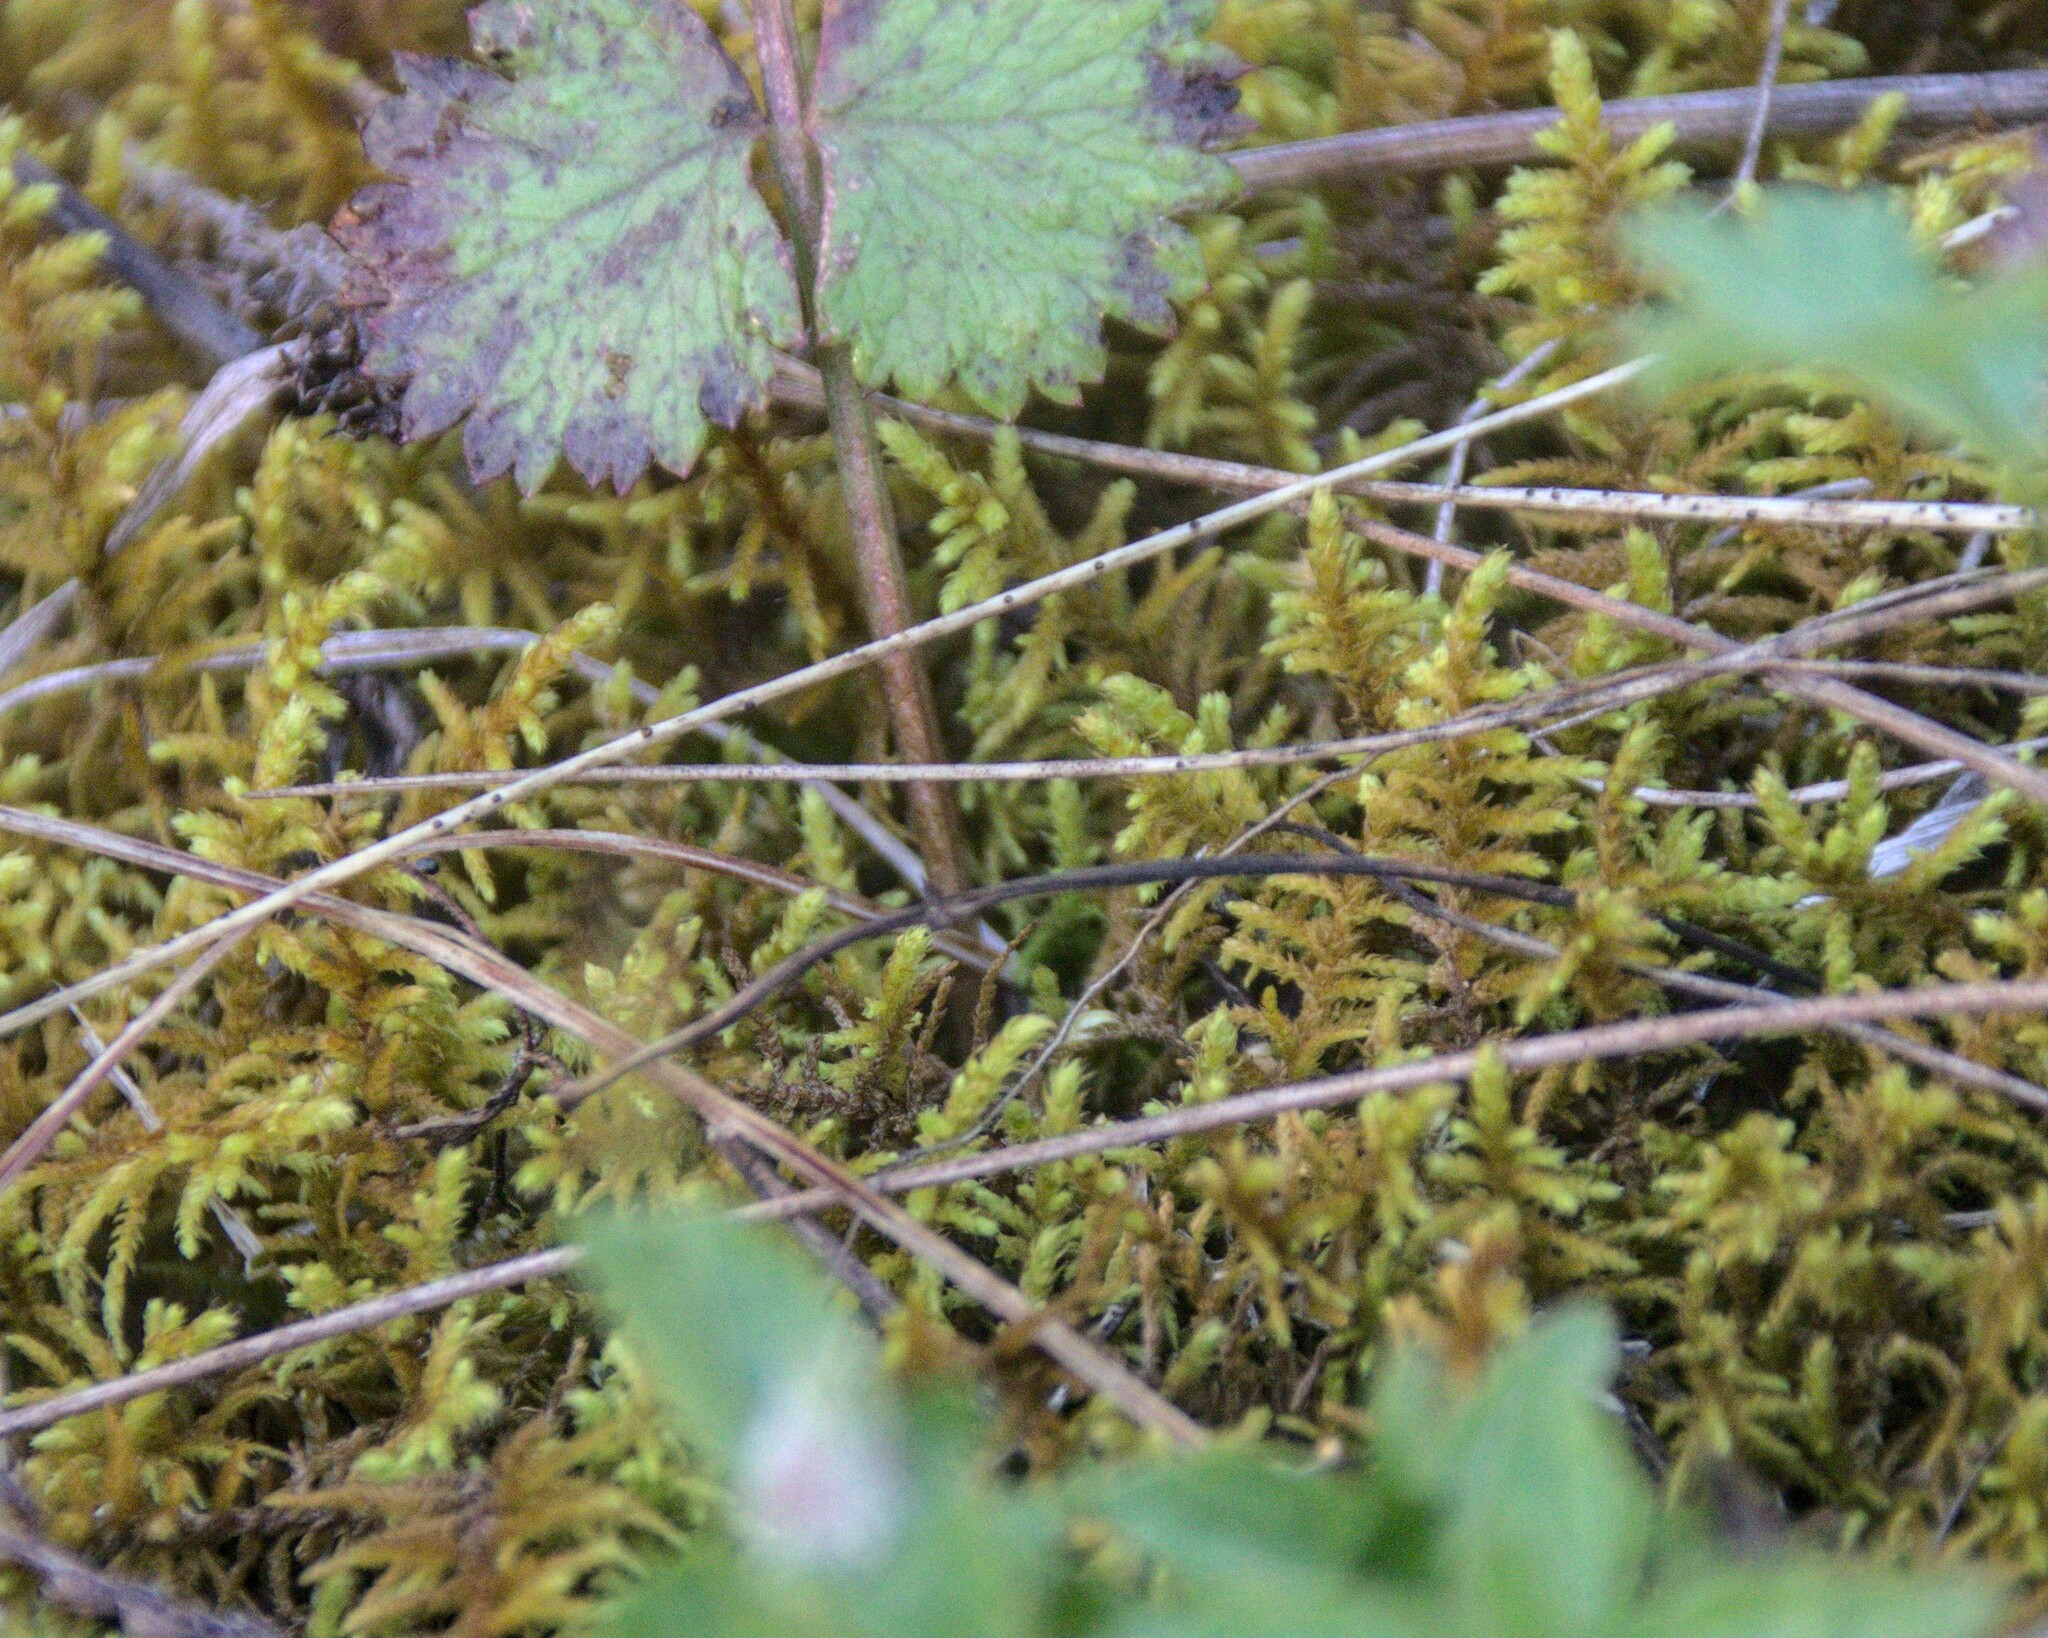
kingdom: Plantae
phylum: Bryophyta
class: Bryopsida
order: Hypnales
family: Thuidiaceae
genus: Abietinella
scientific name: Abietinella abietina
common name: Wiry fern moss
